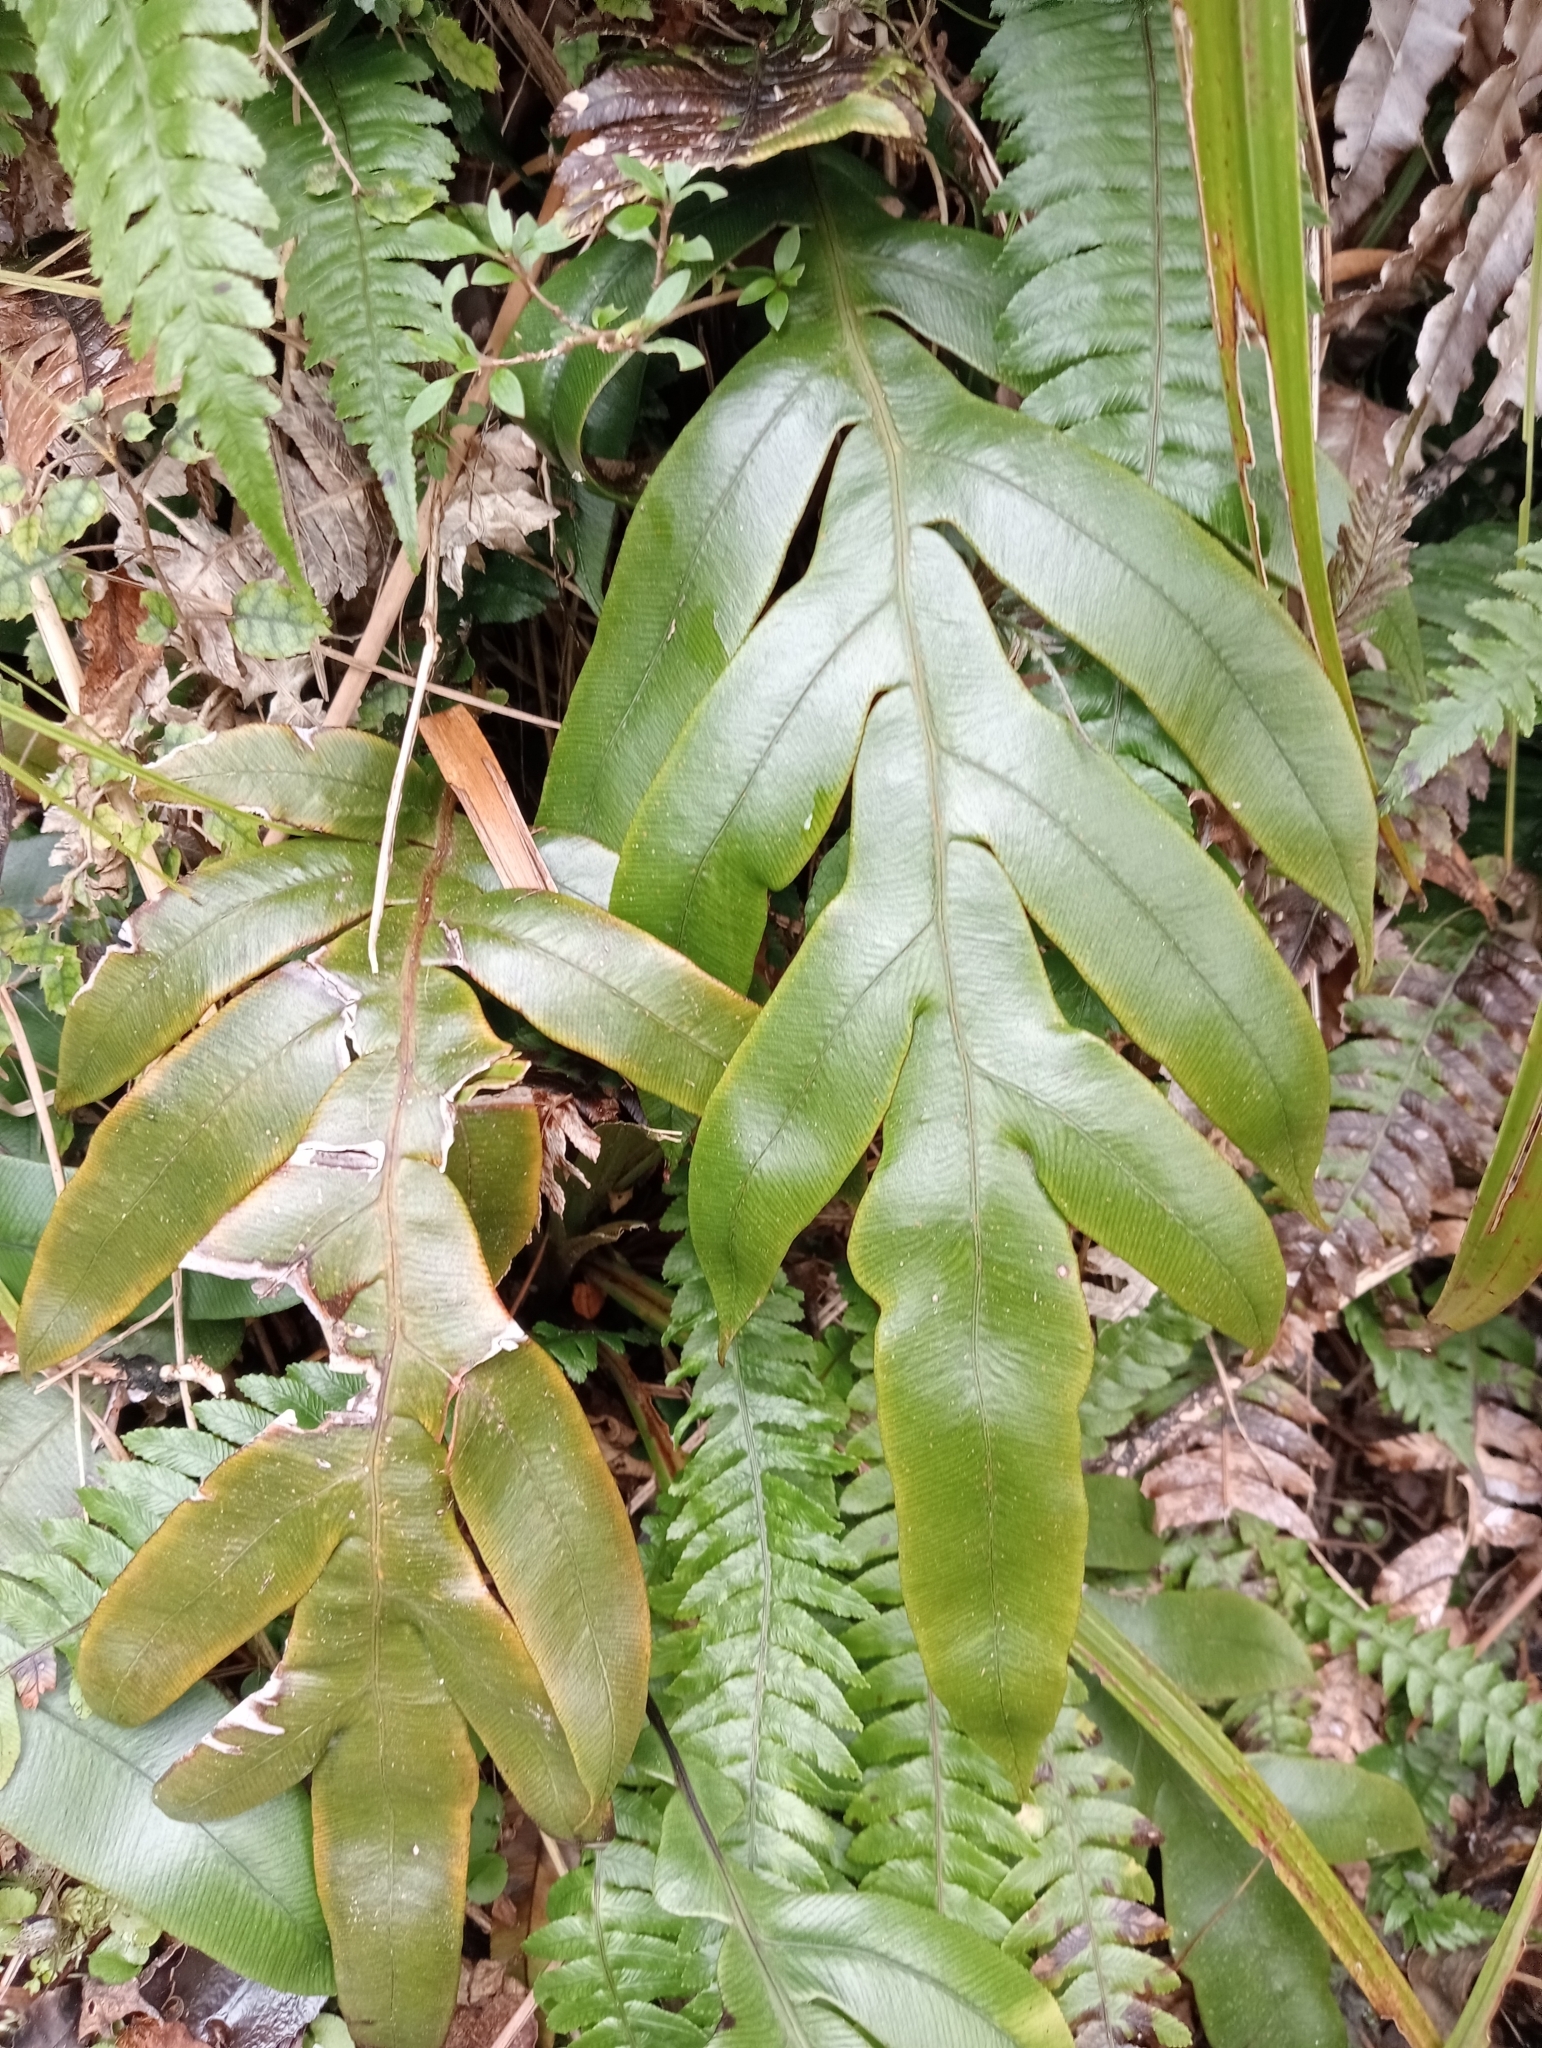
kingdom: Plantae
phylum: Tracheophyta
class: Polypodiopsida
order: Polypodiales
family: Blechnaceae
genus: Austroblechnum
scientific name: Austroblechnum colensoi
